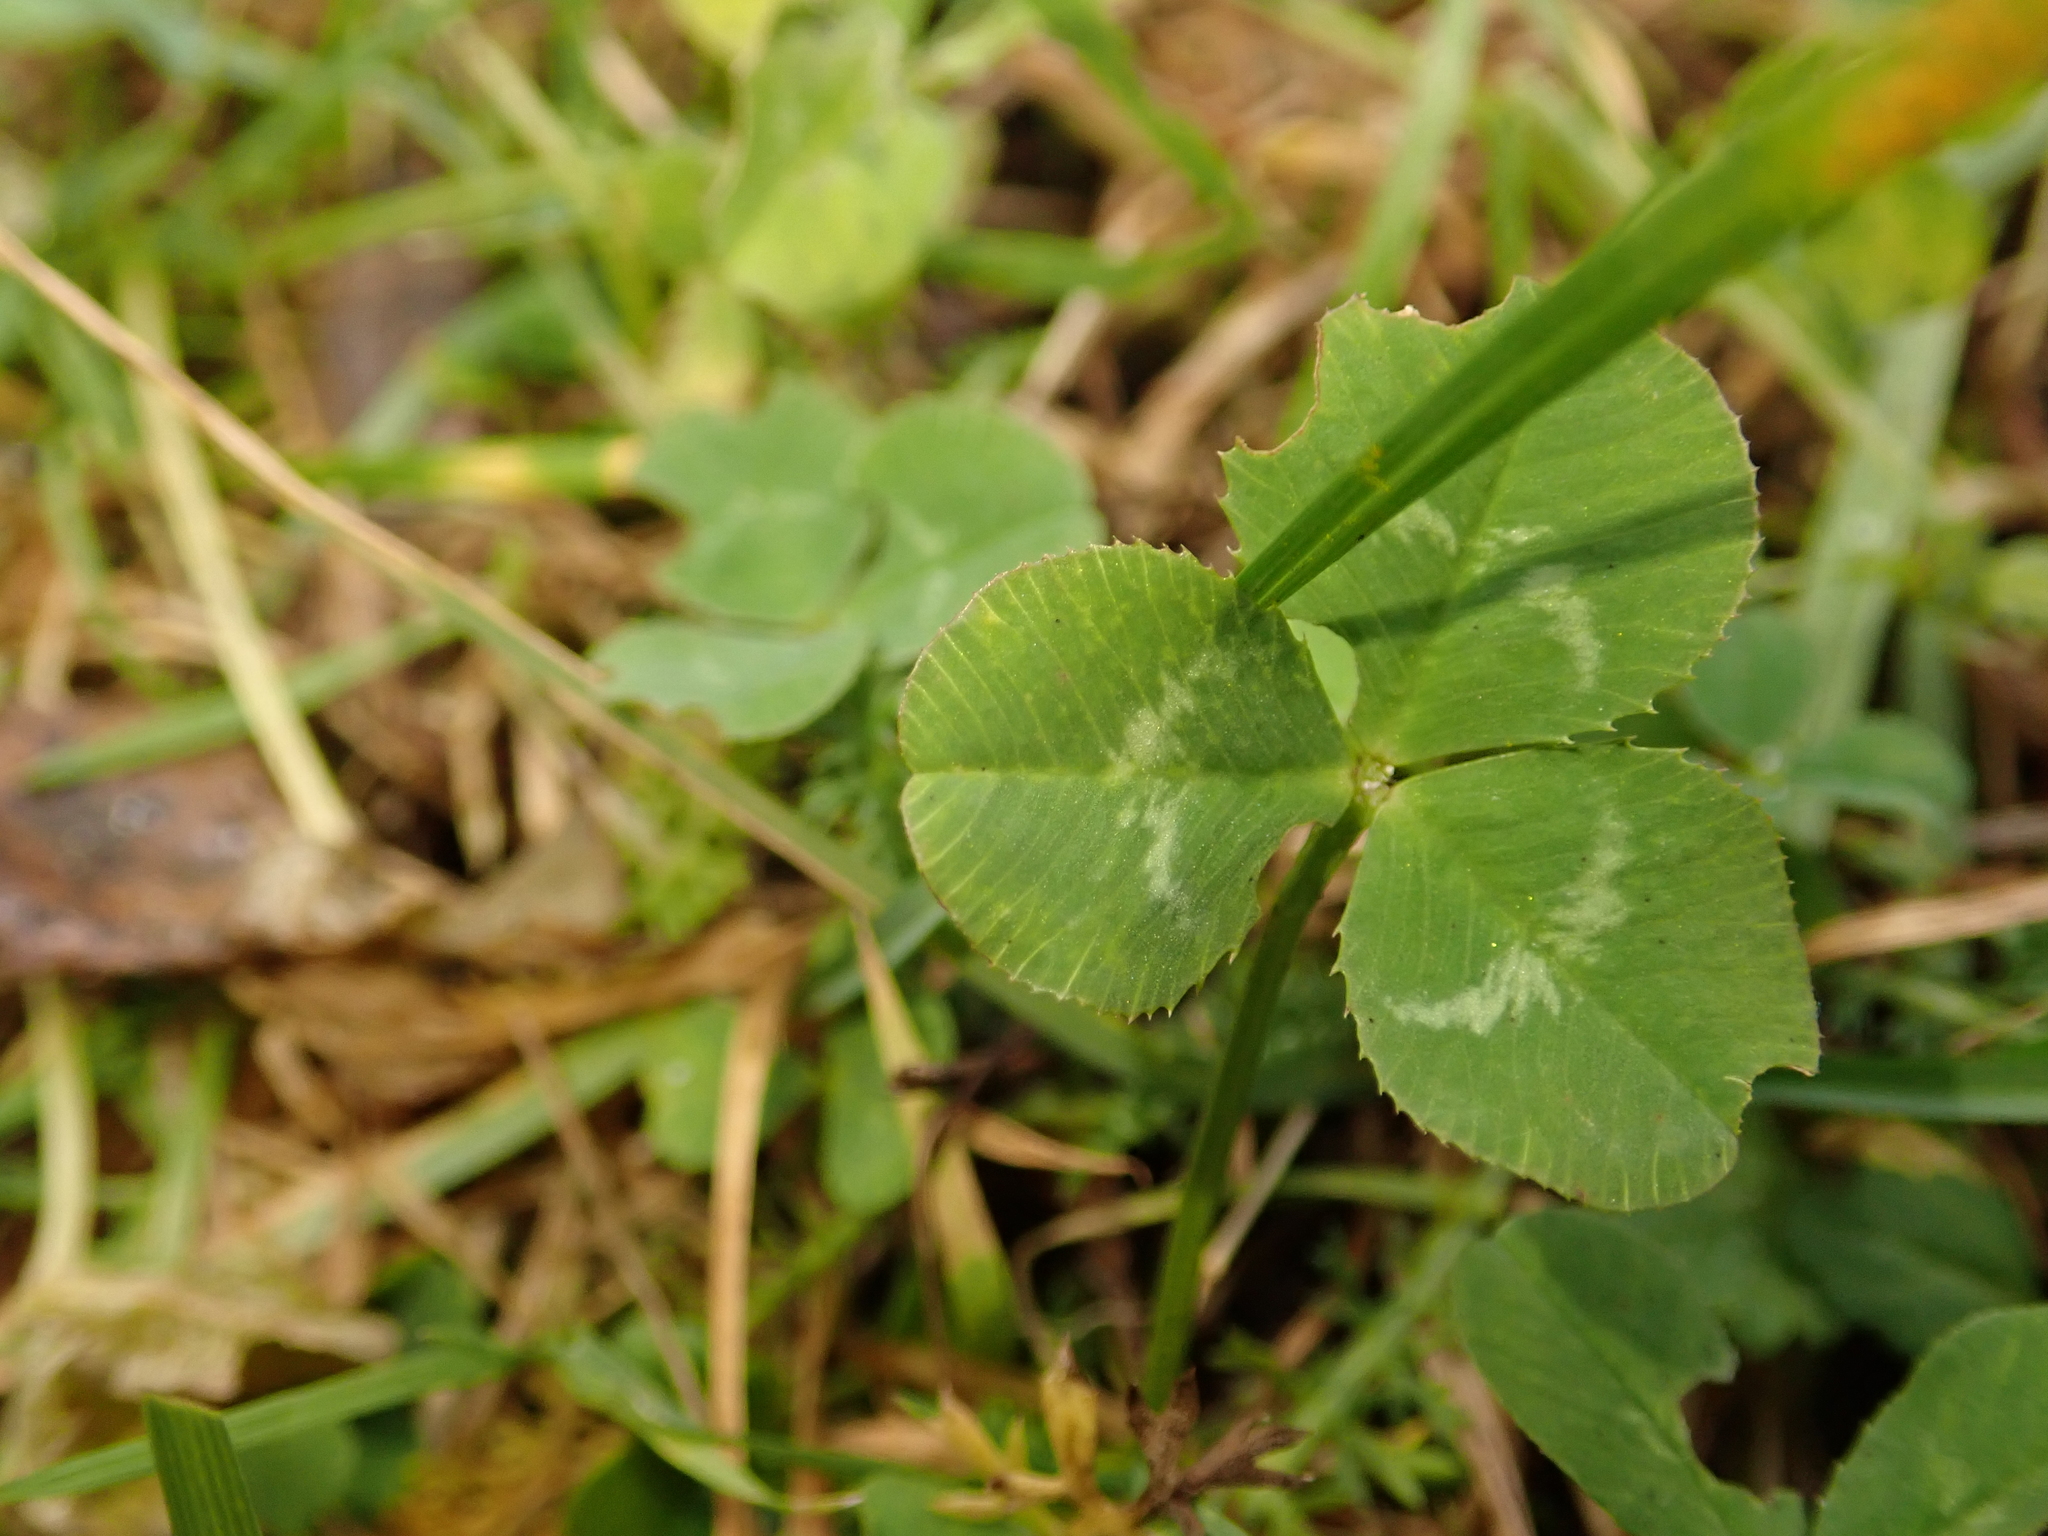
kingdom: Plantae
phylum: Tracheophyta
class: Magnoliopsida
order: Fabales
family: Fabaceae
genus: Trifolium
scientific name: Trifolium repens
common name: White clover
